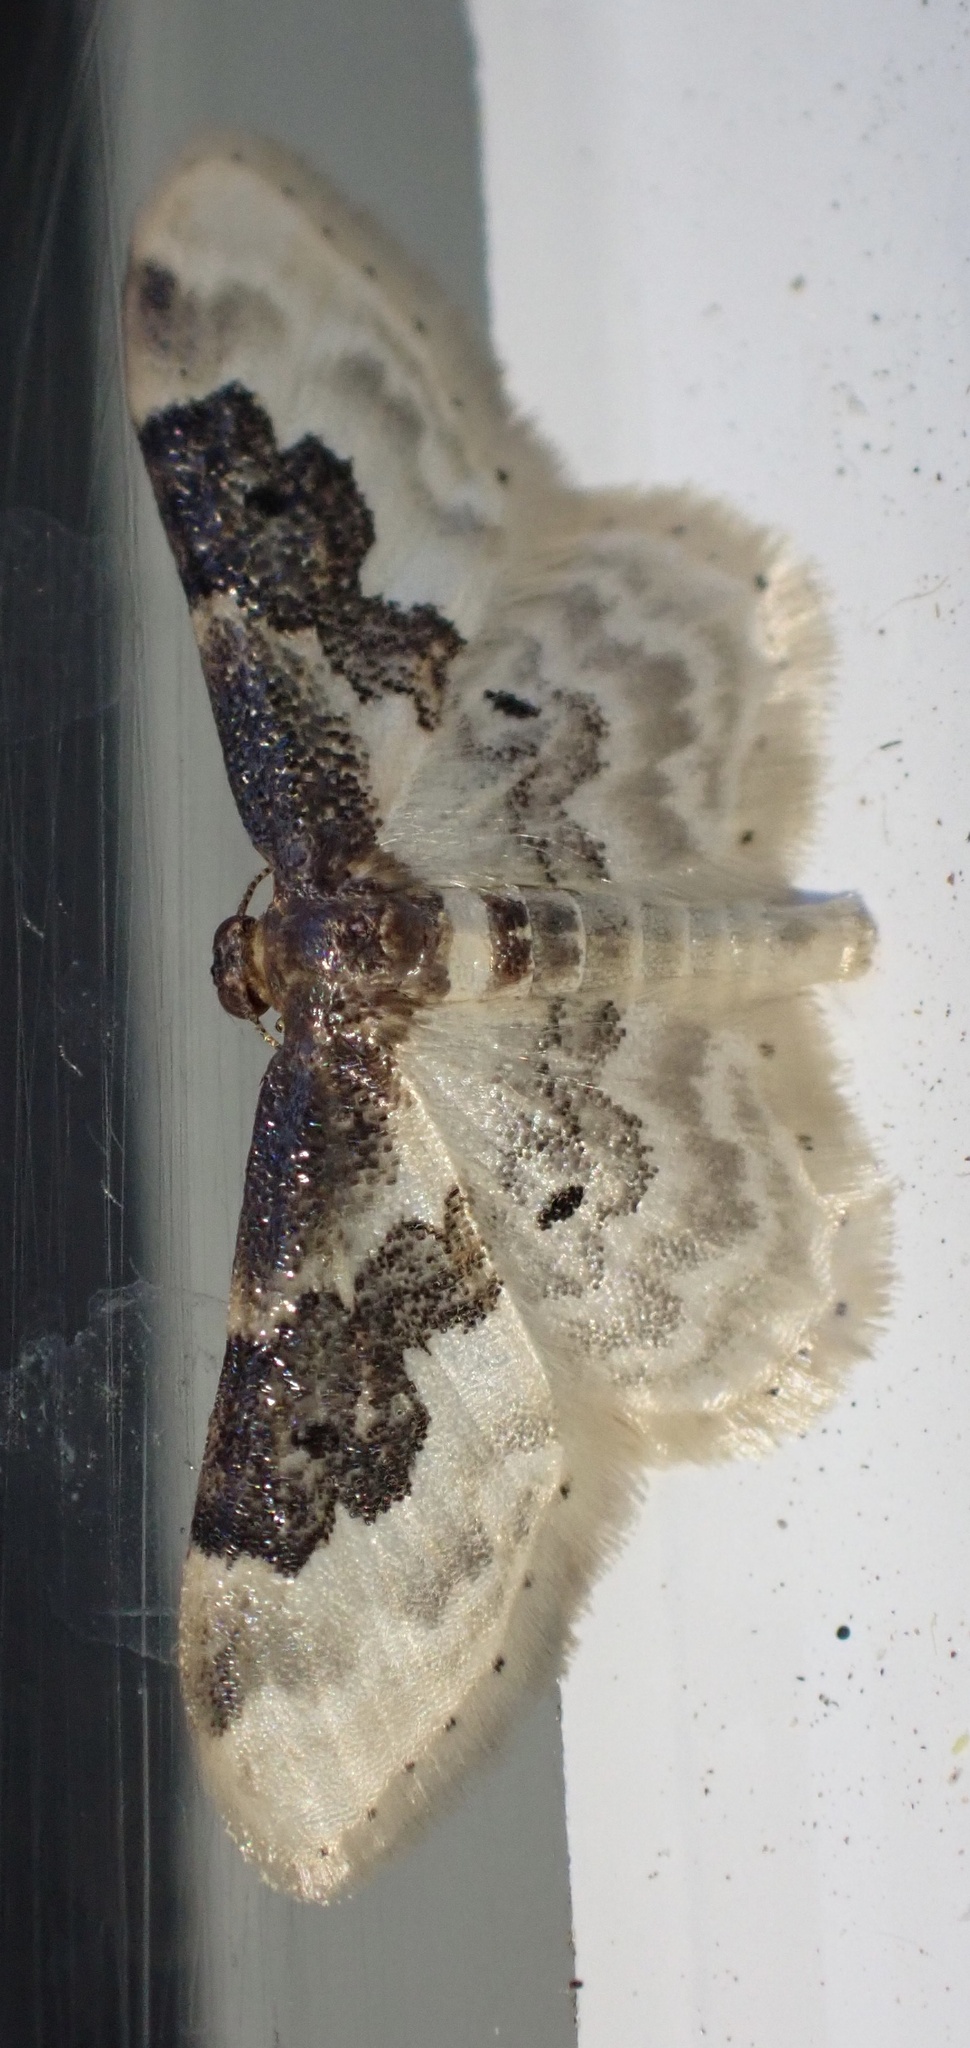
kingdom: Animalia
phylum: Arthropoda
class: Insecta
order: Lepidoptera
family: Geometridae
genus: Idaea
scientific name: Idaea rusticata
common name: Least carpet
